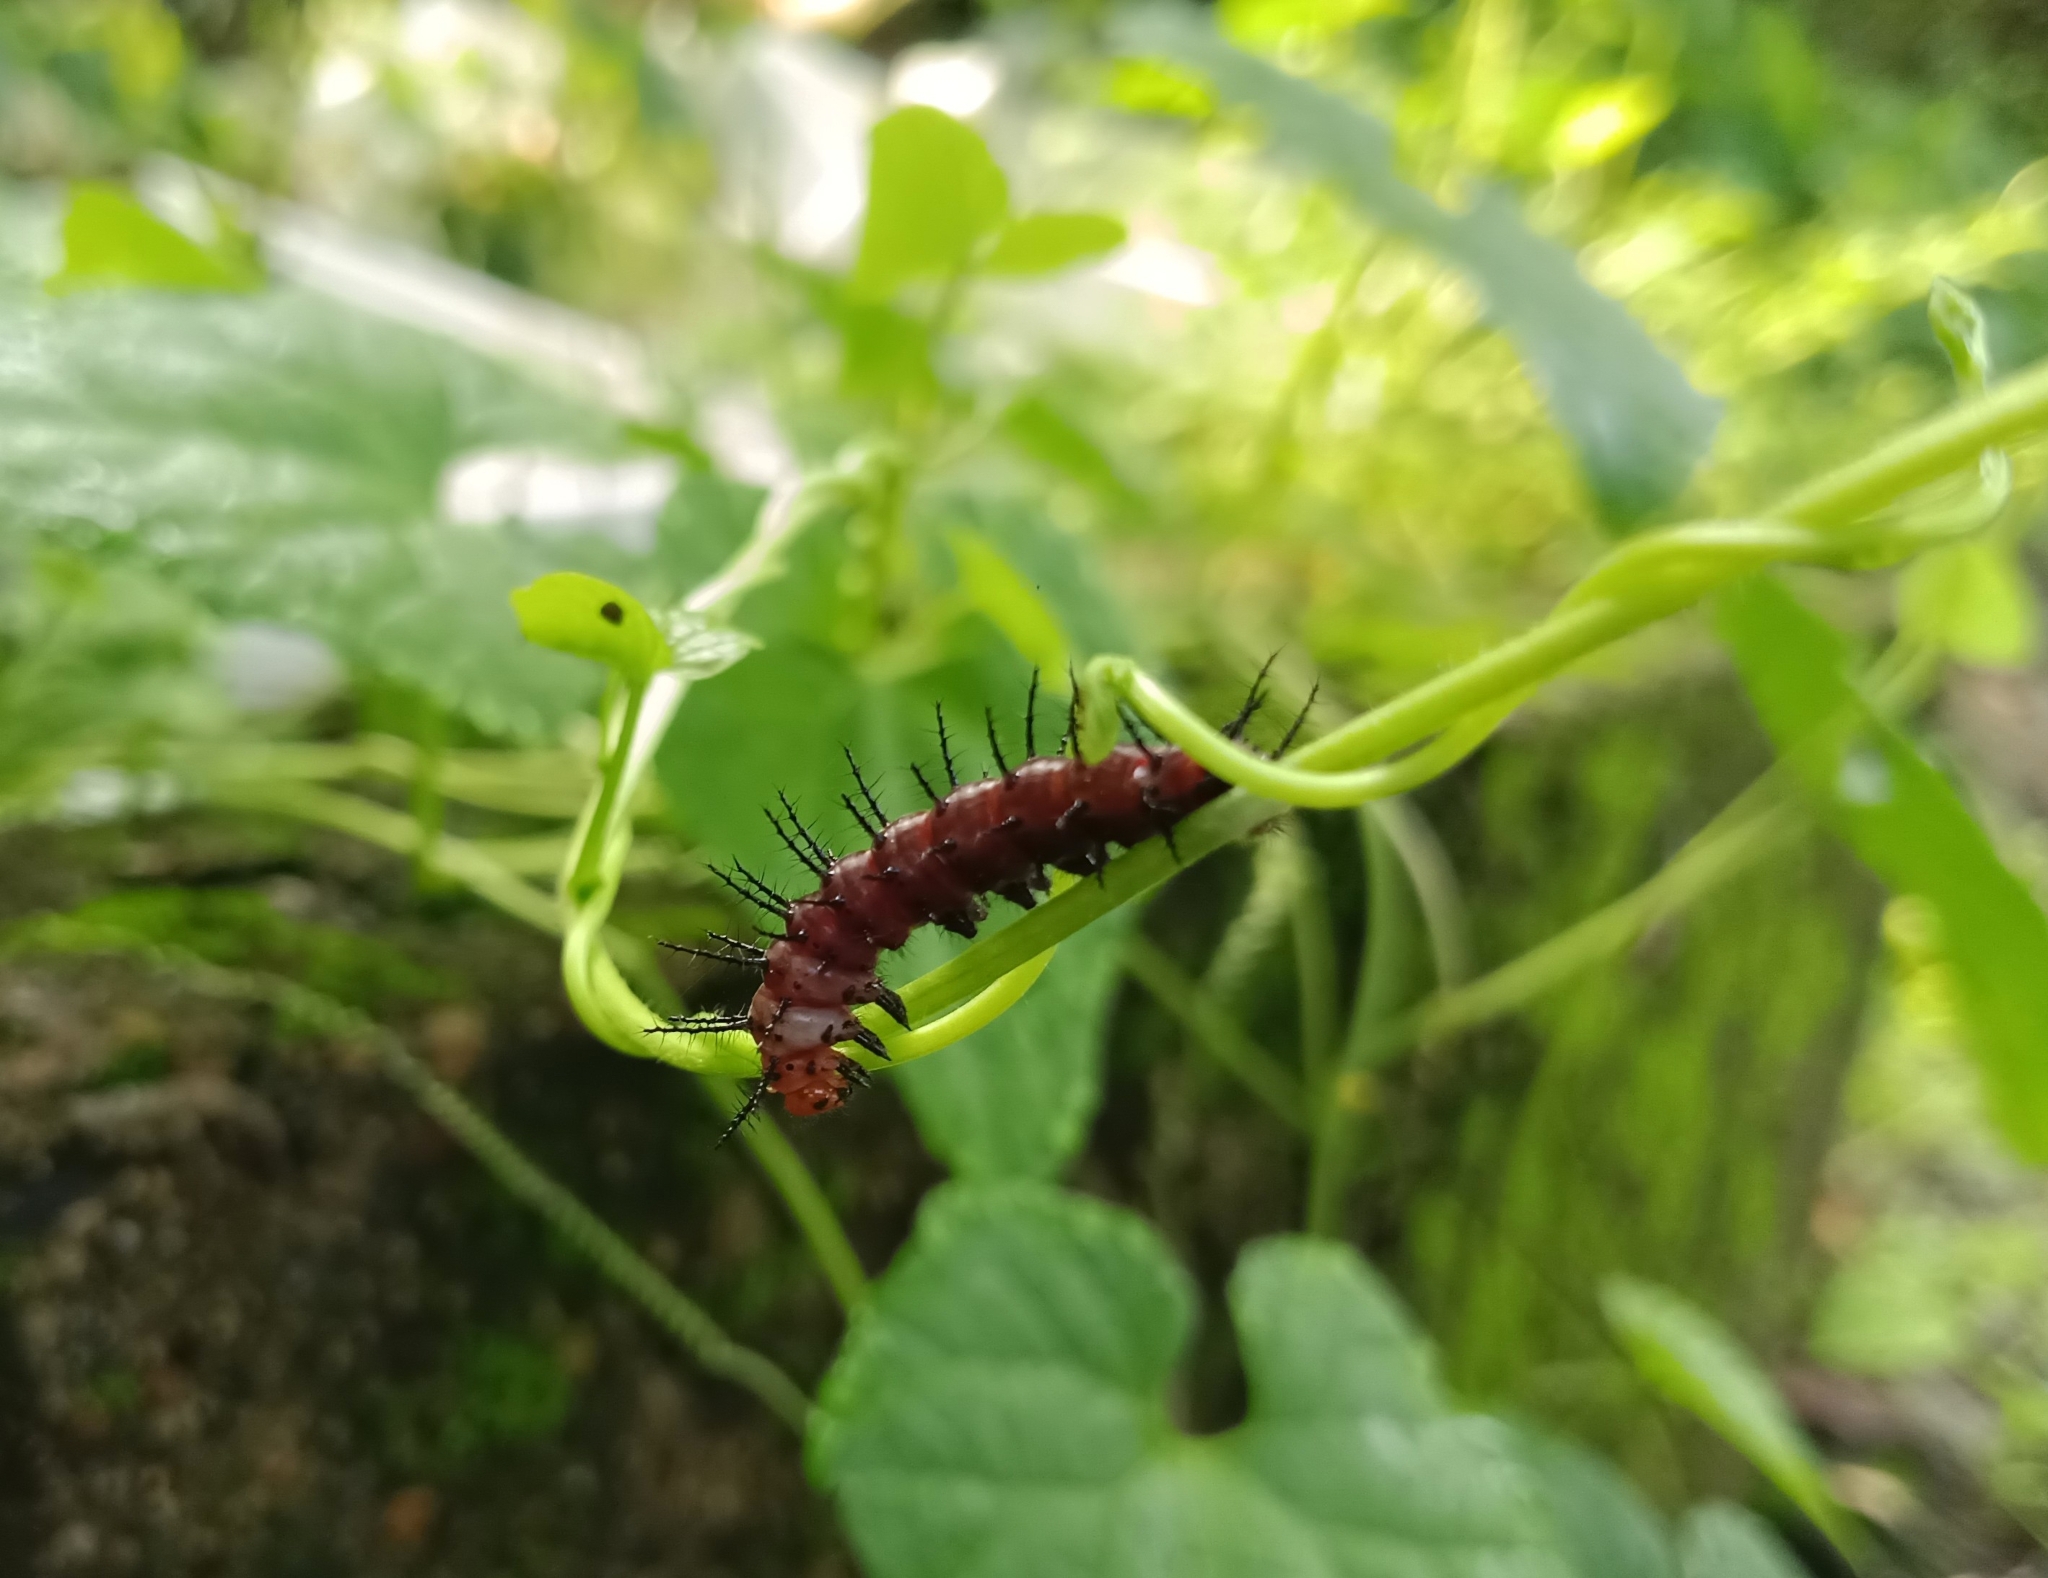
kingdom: Animalia
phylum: Arthropoda
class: Insecta
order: Lepidoptera
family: Nymphalidae
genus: Acraea
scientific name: Acraea terpsicore
